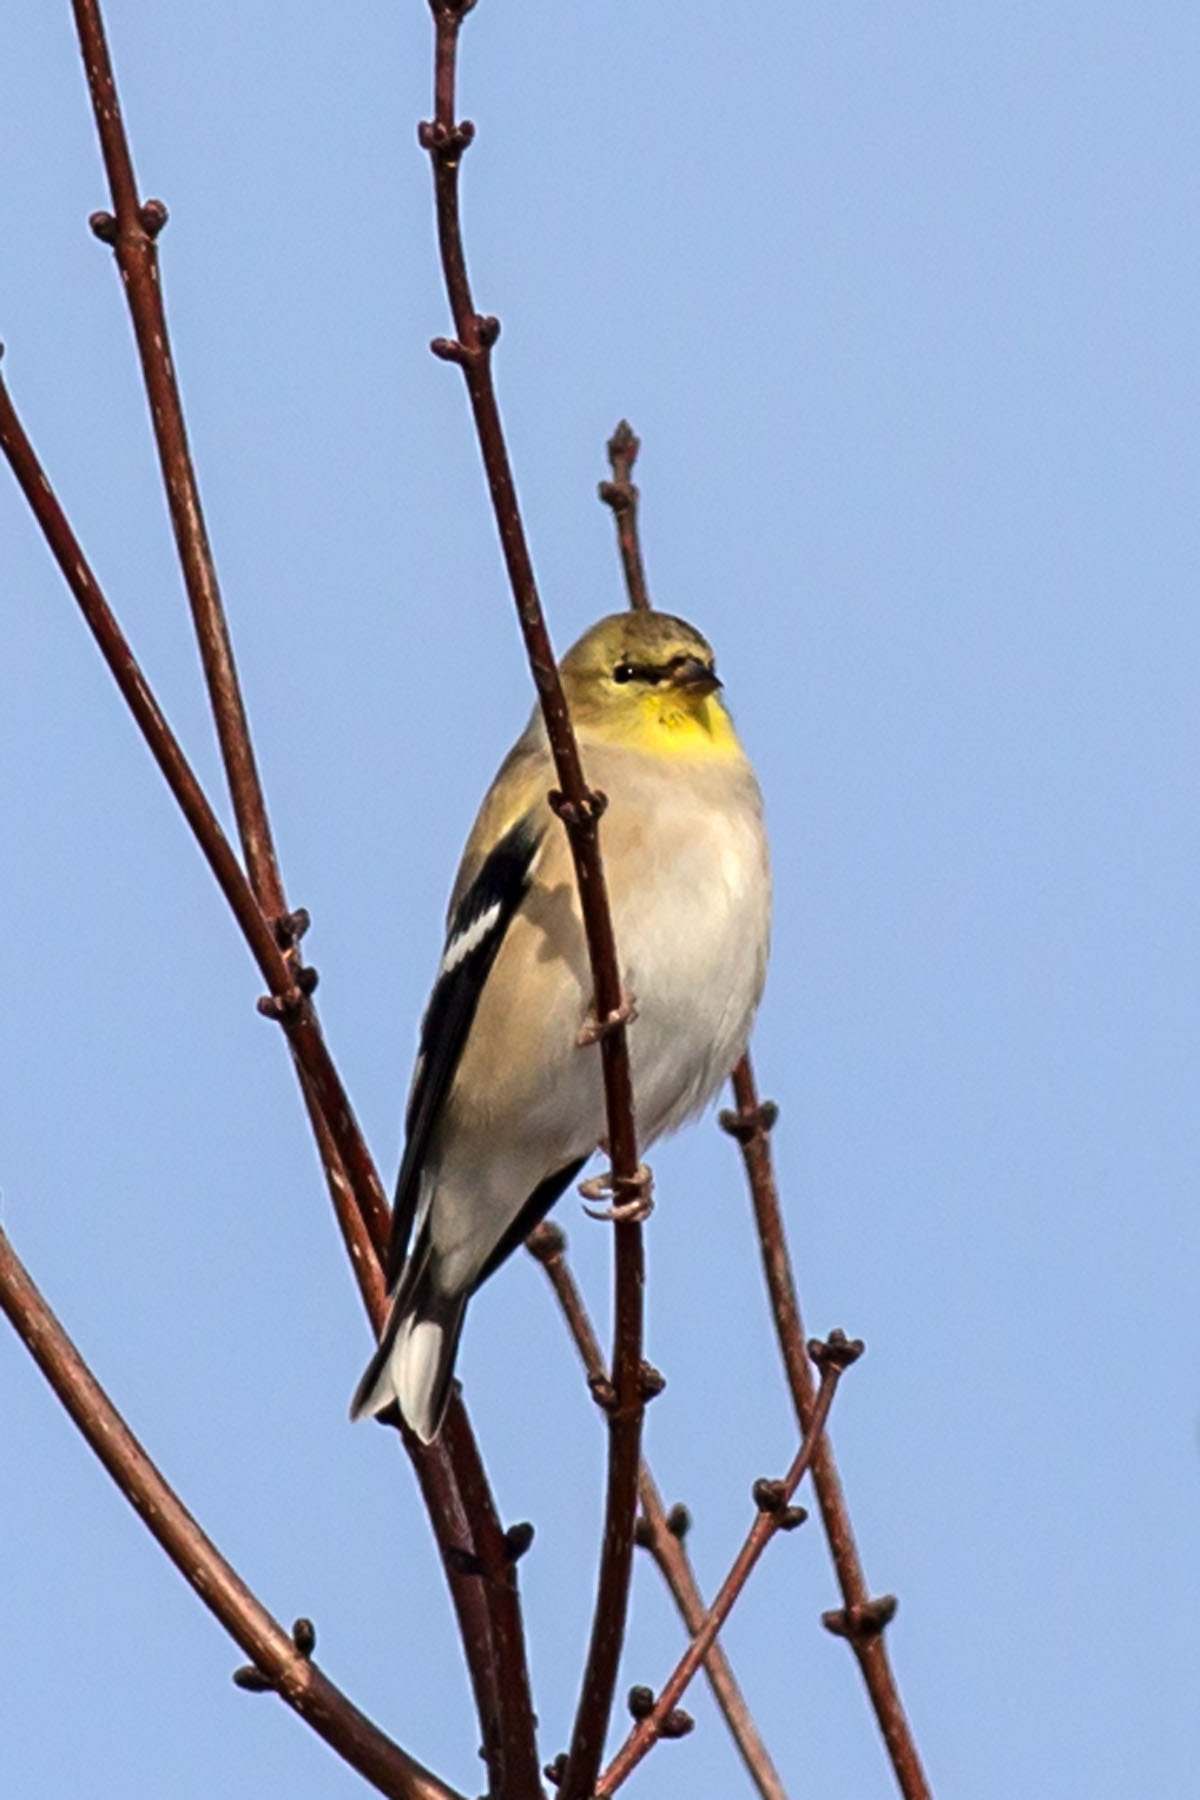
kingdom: Animalia
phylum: Chordata
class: Aves
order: Passeriformes
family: Fringillidae
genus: Spinus
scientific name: Spinus tristis
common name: American goldfinch
